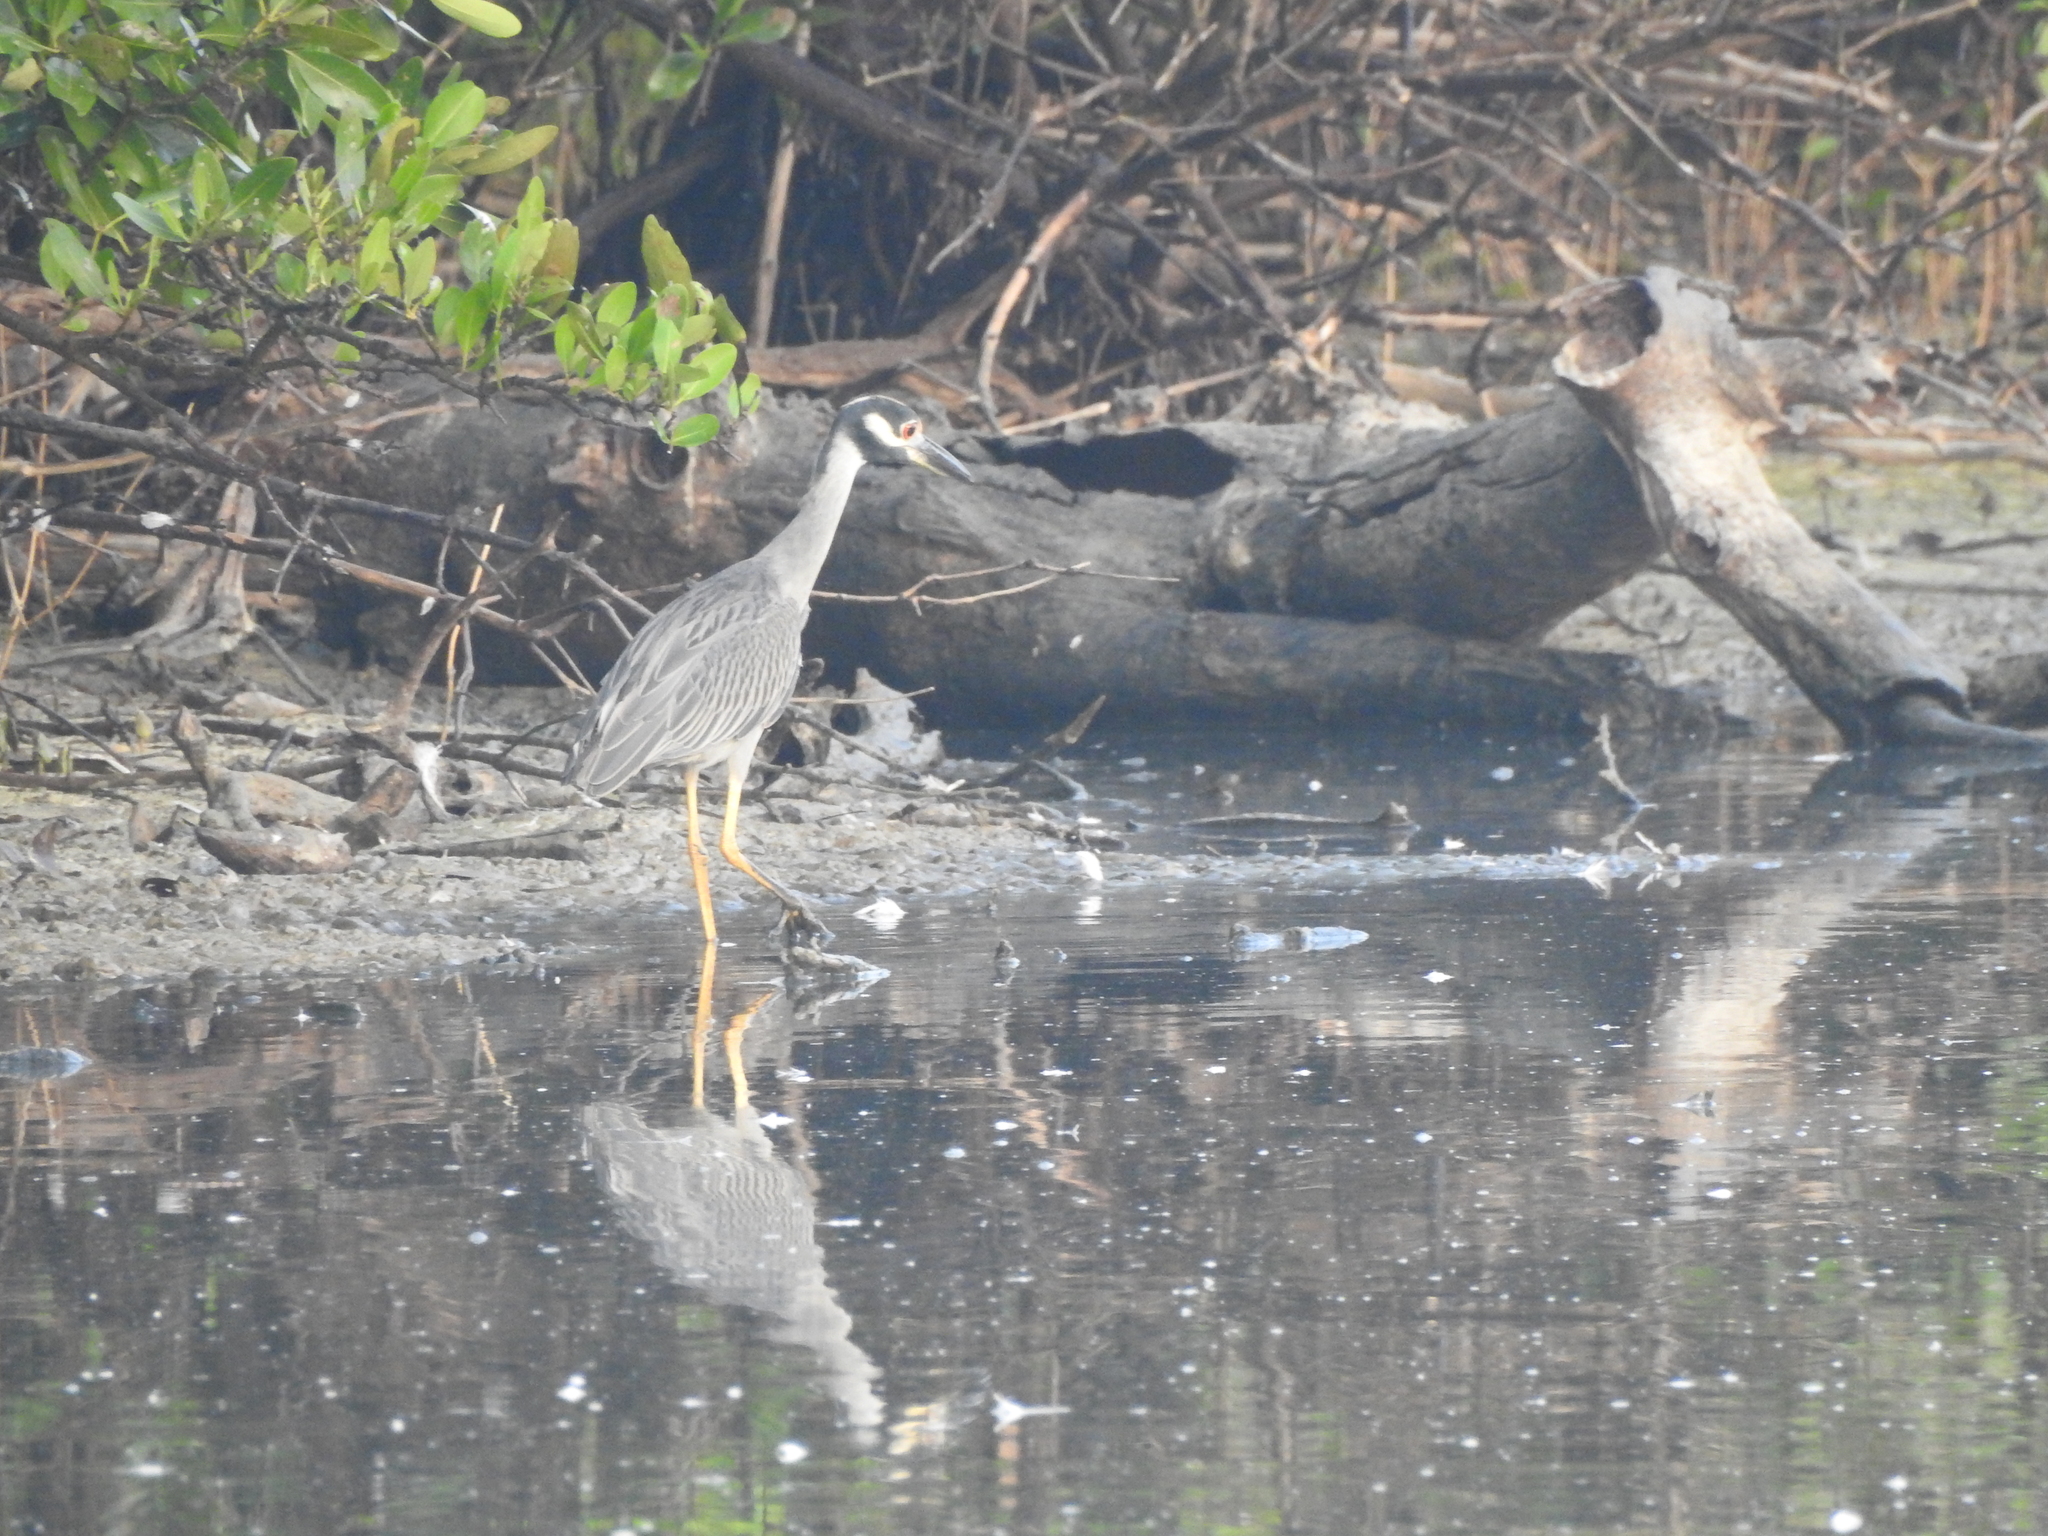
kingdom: Animalia
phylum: Chordata
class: Aves
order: Pelecaniformes
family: Ardeidae
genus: Nyctanassa
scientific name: Nyctanassa violacea
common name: Yellow-crowned night heron
